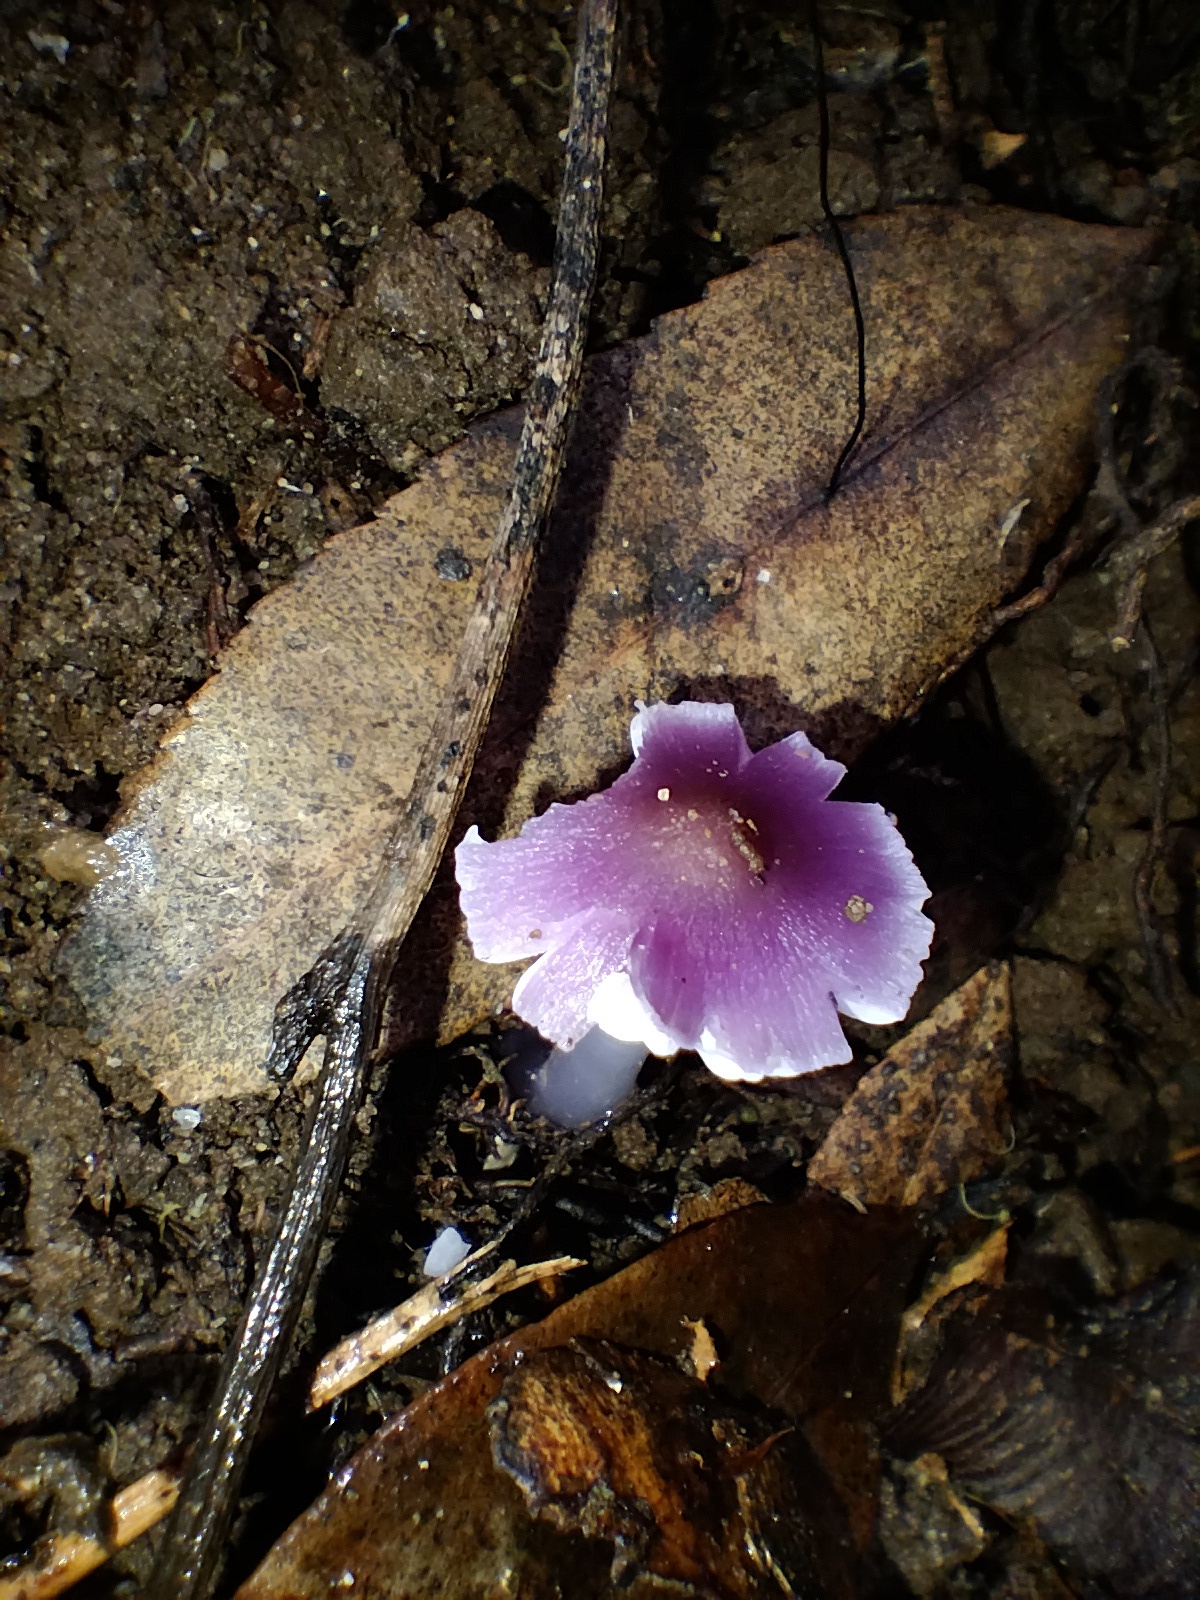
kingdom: Fungi
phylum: Basidiomycota
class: Agaricomycetes
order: Agaricales
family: Hygrophoraceae
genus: Porpolomopsis
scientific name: Porpolomopsis lewelliniae
